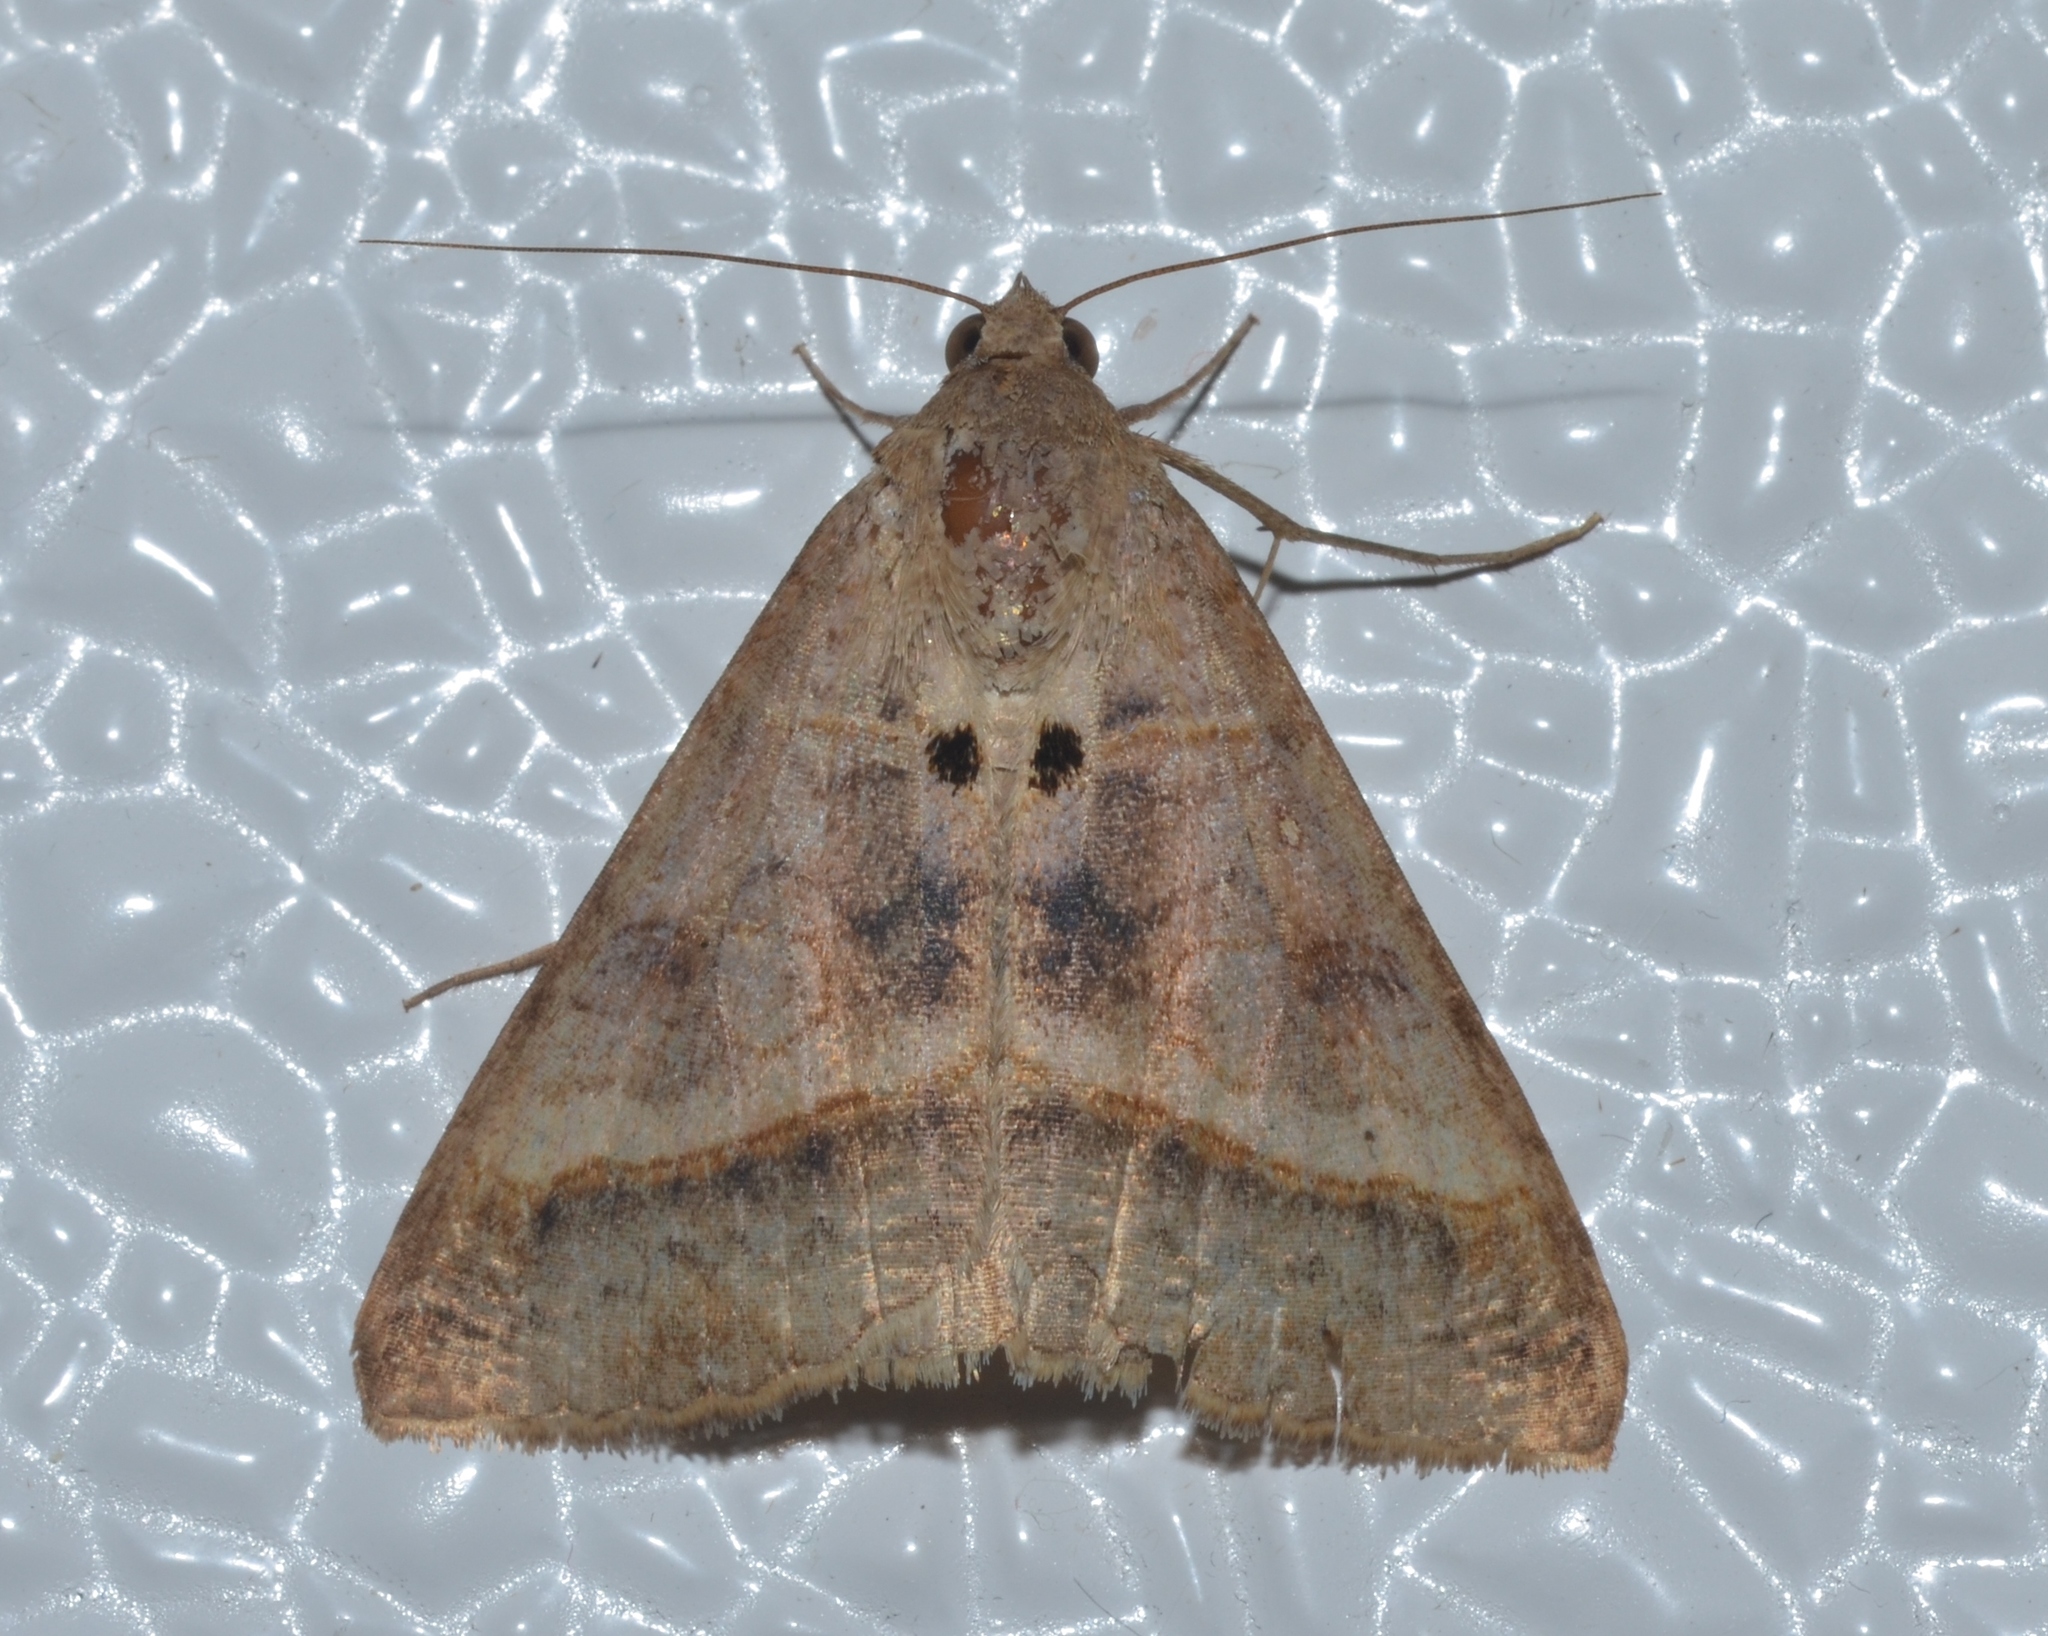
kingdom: Animalia
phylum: Arthropoda
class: Insecta
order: Lepidoptera
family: Erebidae
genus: Mocis
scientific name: Mocis latipes
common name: Striped grass looper
